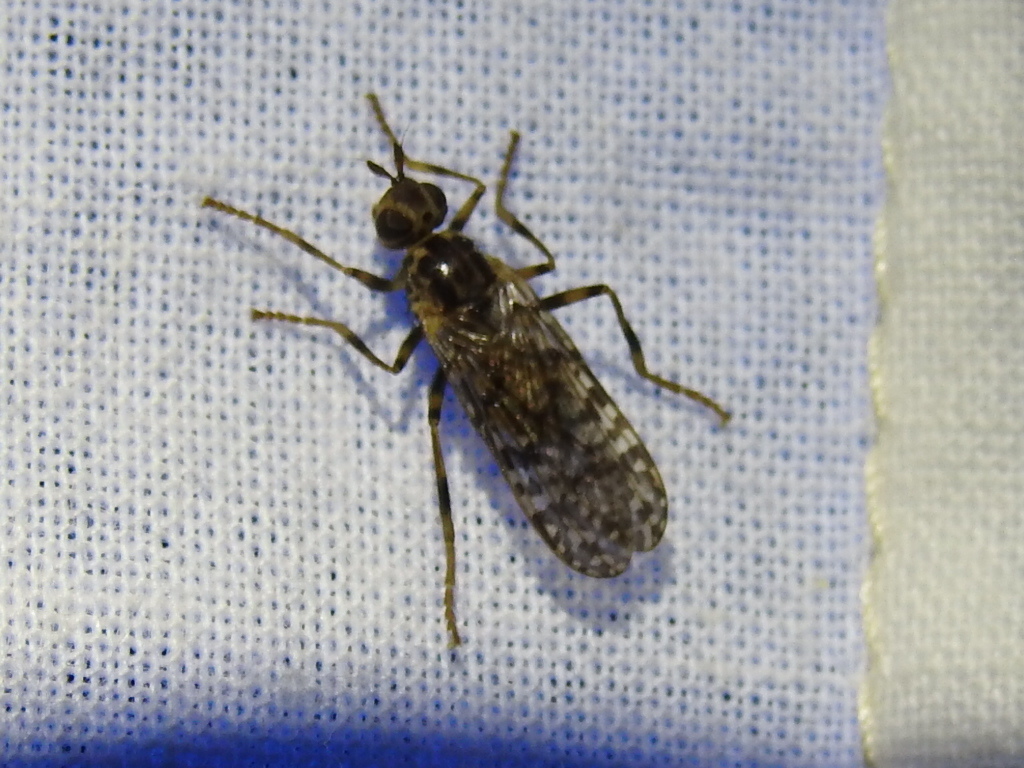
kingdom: Animalia
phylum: Arthropoda
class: Insecta
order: Diptera
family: Pyrgotidae
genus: Boreothrinax
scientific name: Boreothrinax
